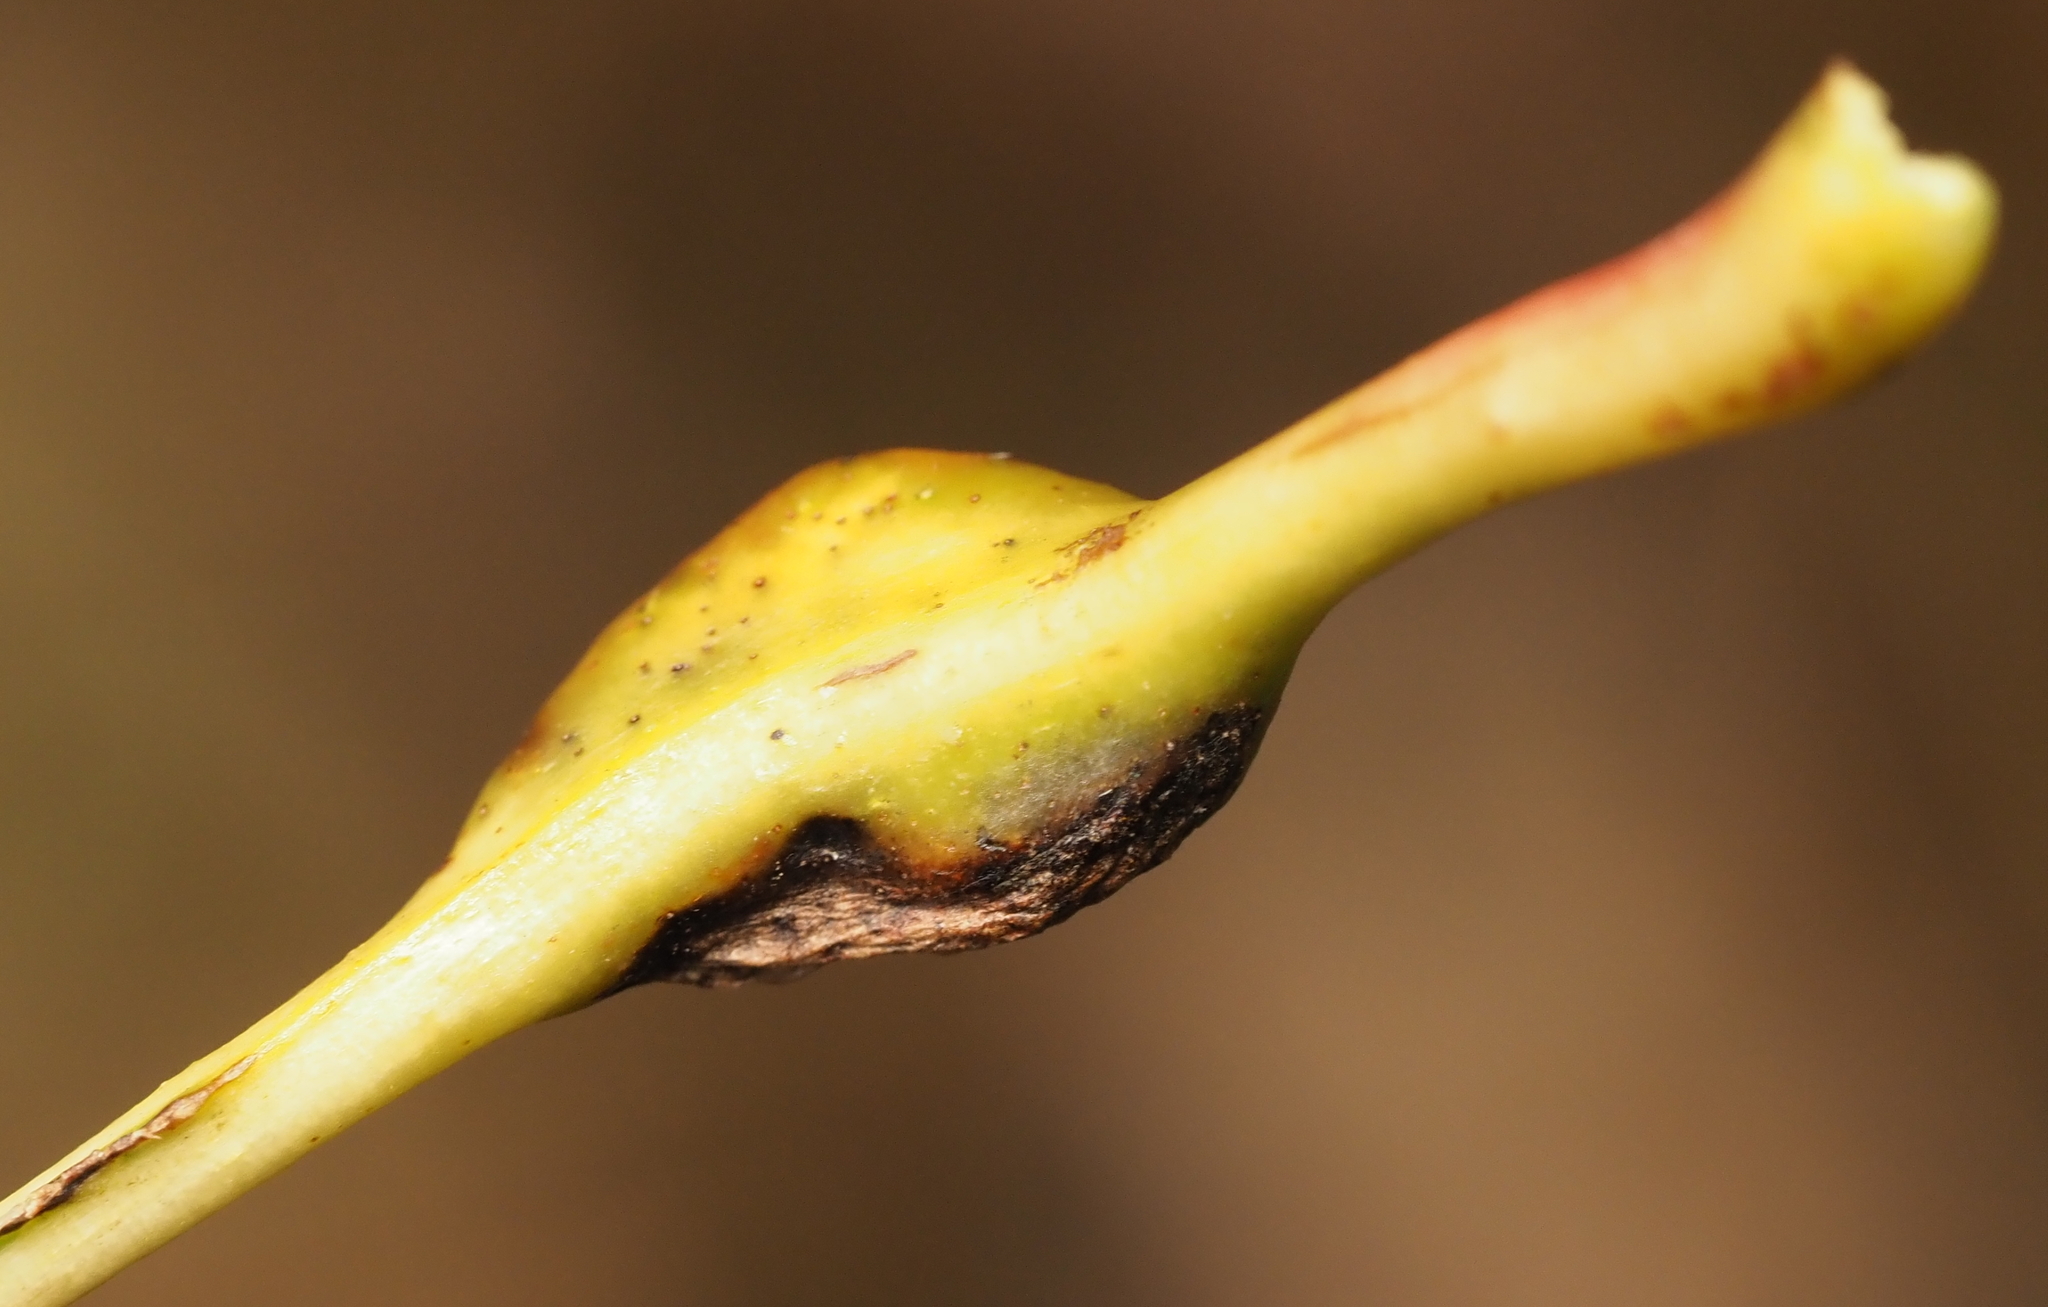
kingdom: Animalia
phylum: Arthropoda
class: Insecta
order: Hymenoptera
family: Cynipidae
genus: Melikaiella
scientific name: Melikaiella tumifica
